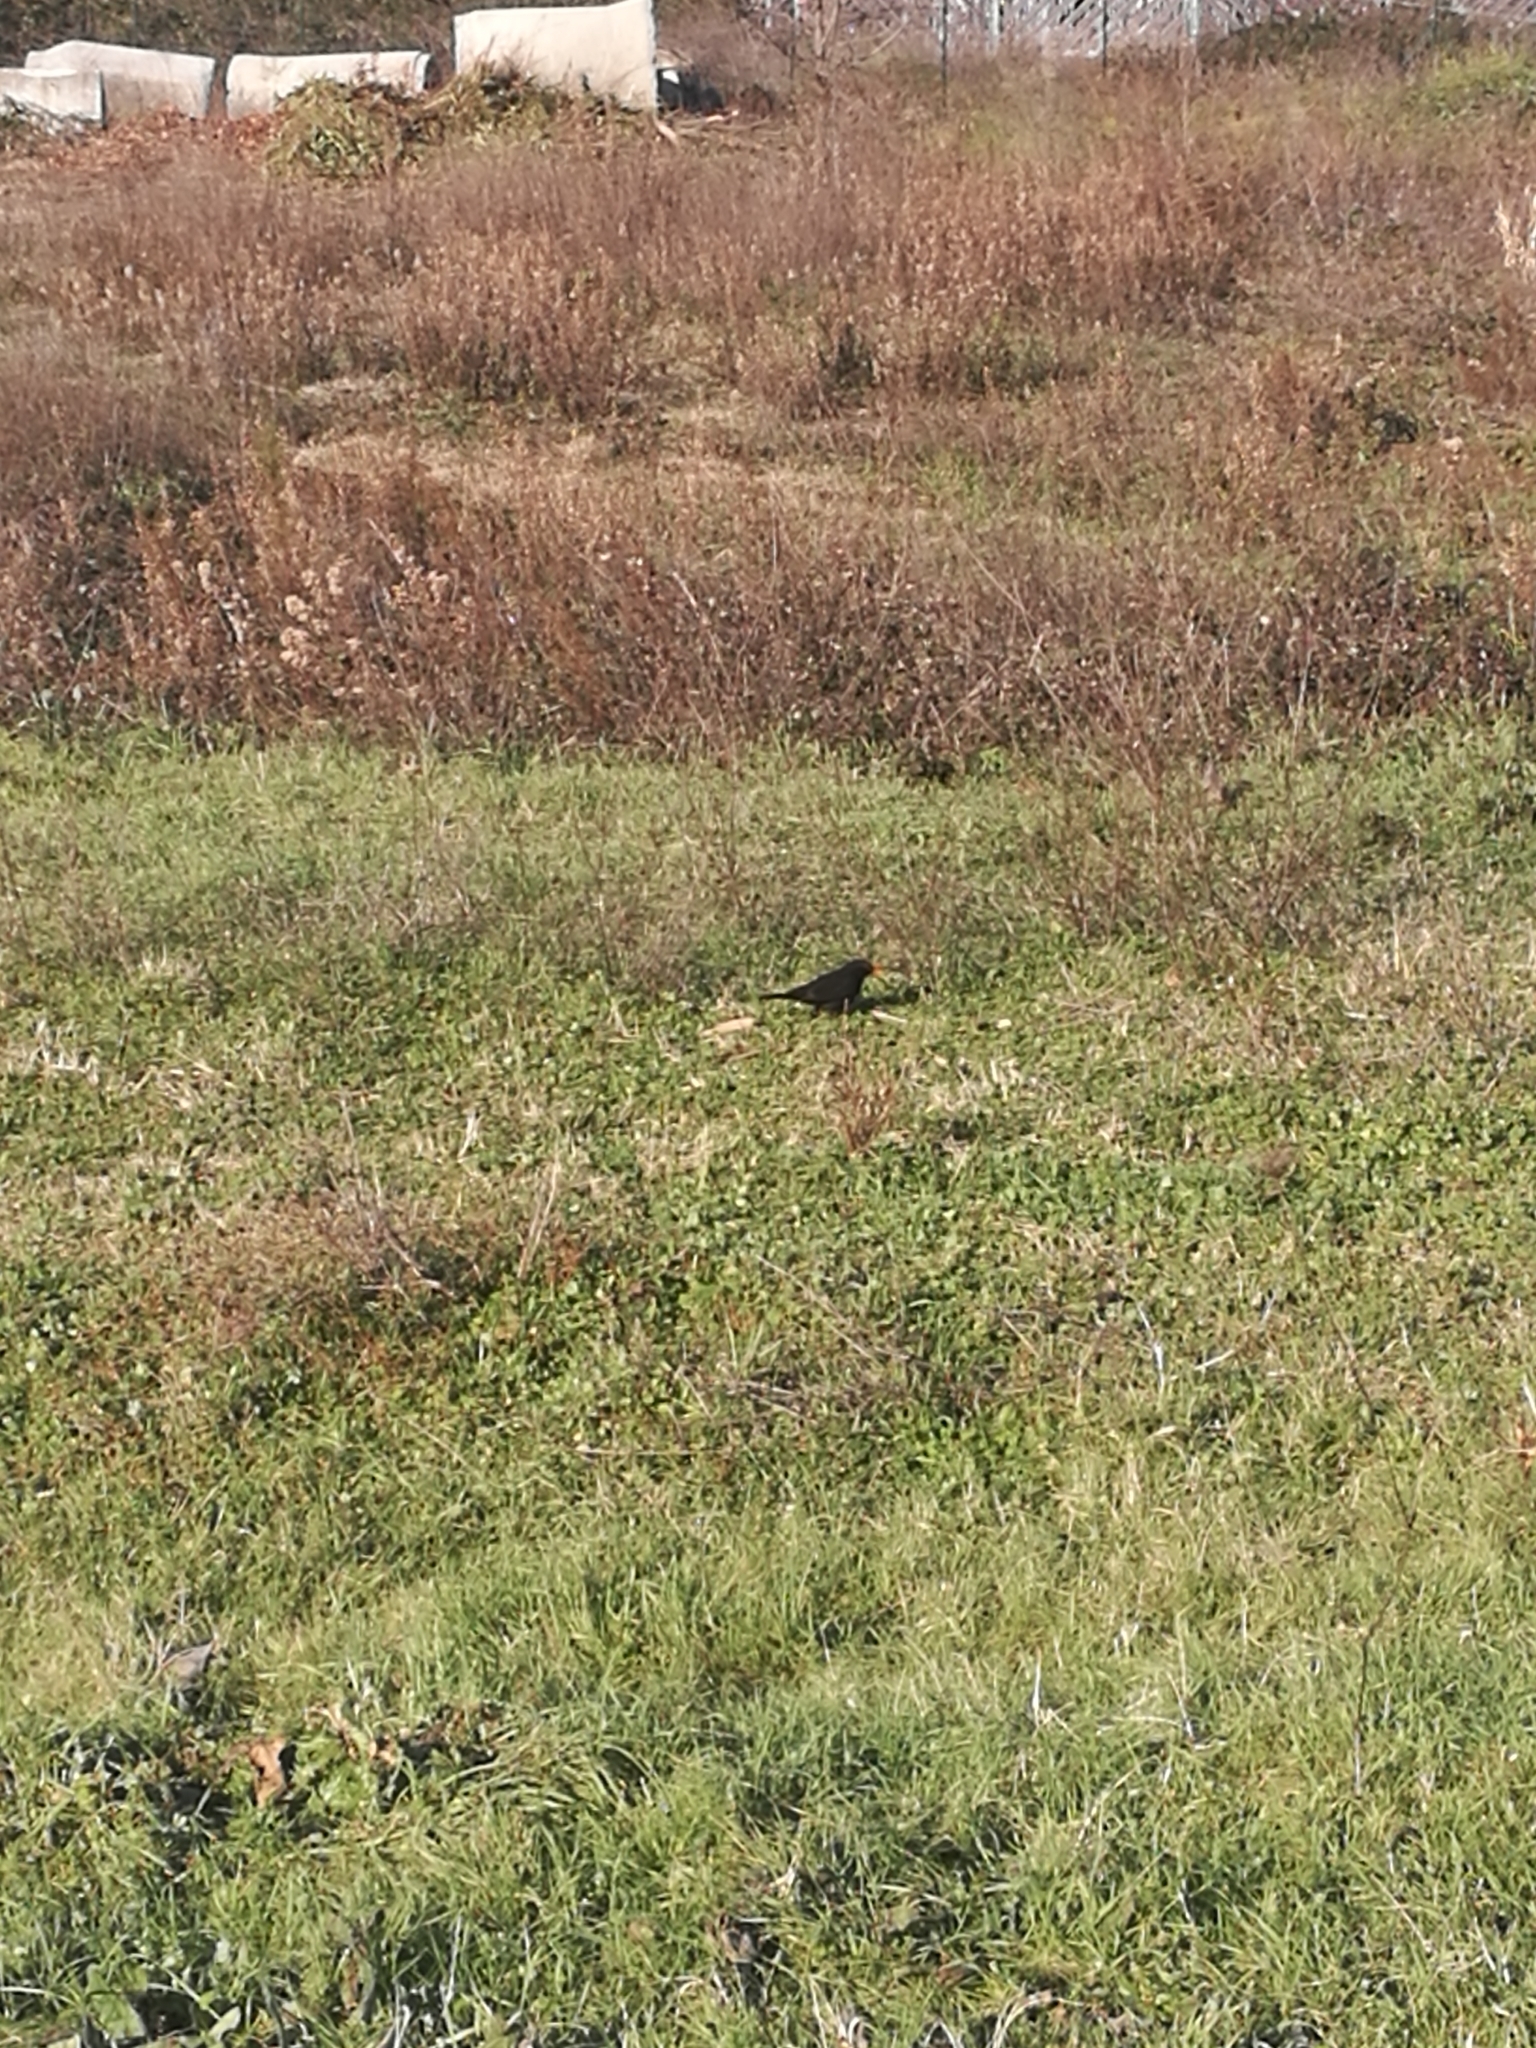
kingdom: Animalia
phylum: Chordata
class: Aves
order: Passeriformes
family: Turdidae
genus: Turdus
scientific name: Turdus merula
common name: Common blackbird
